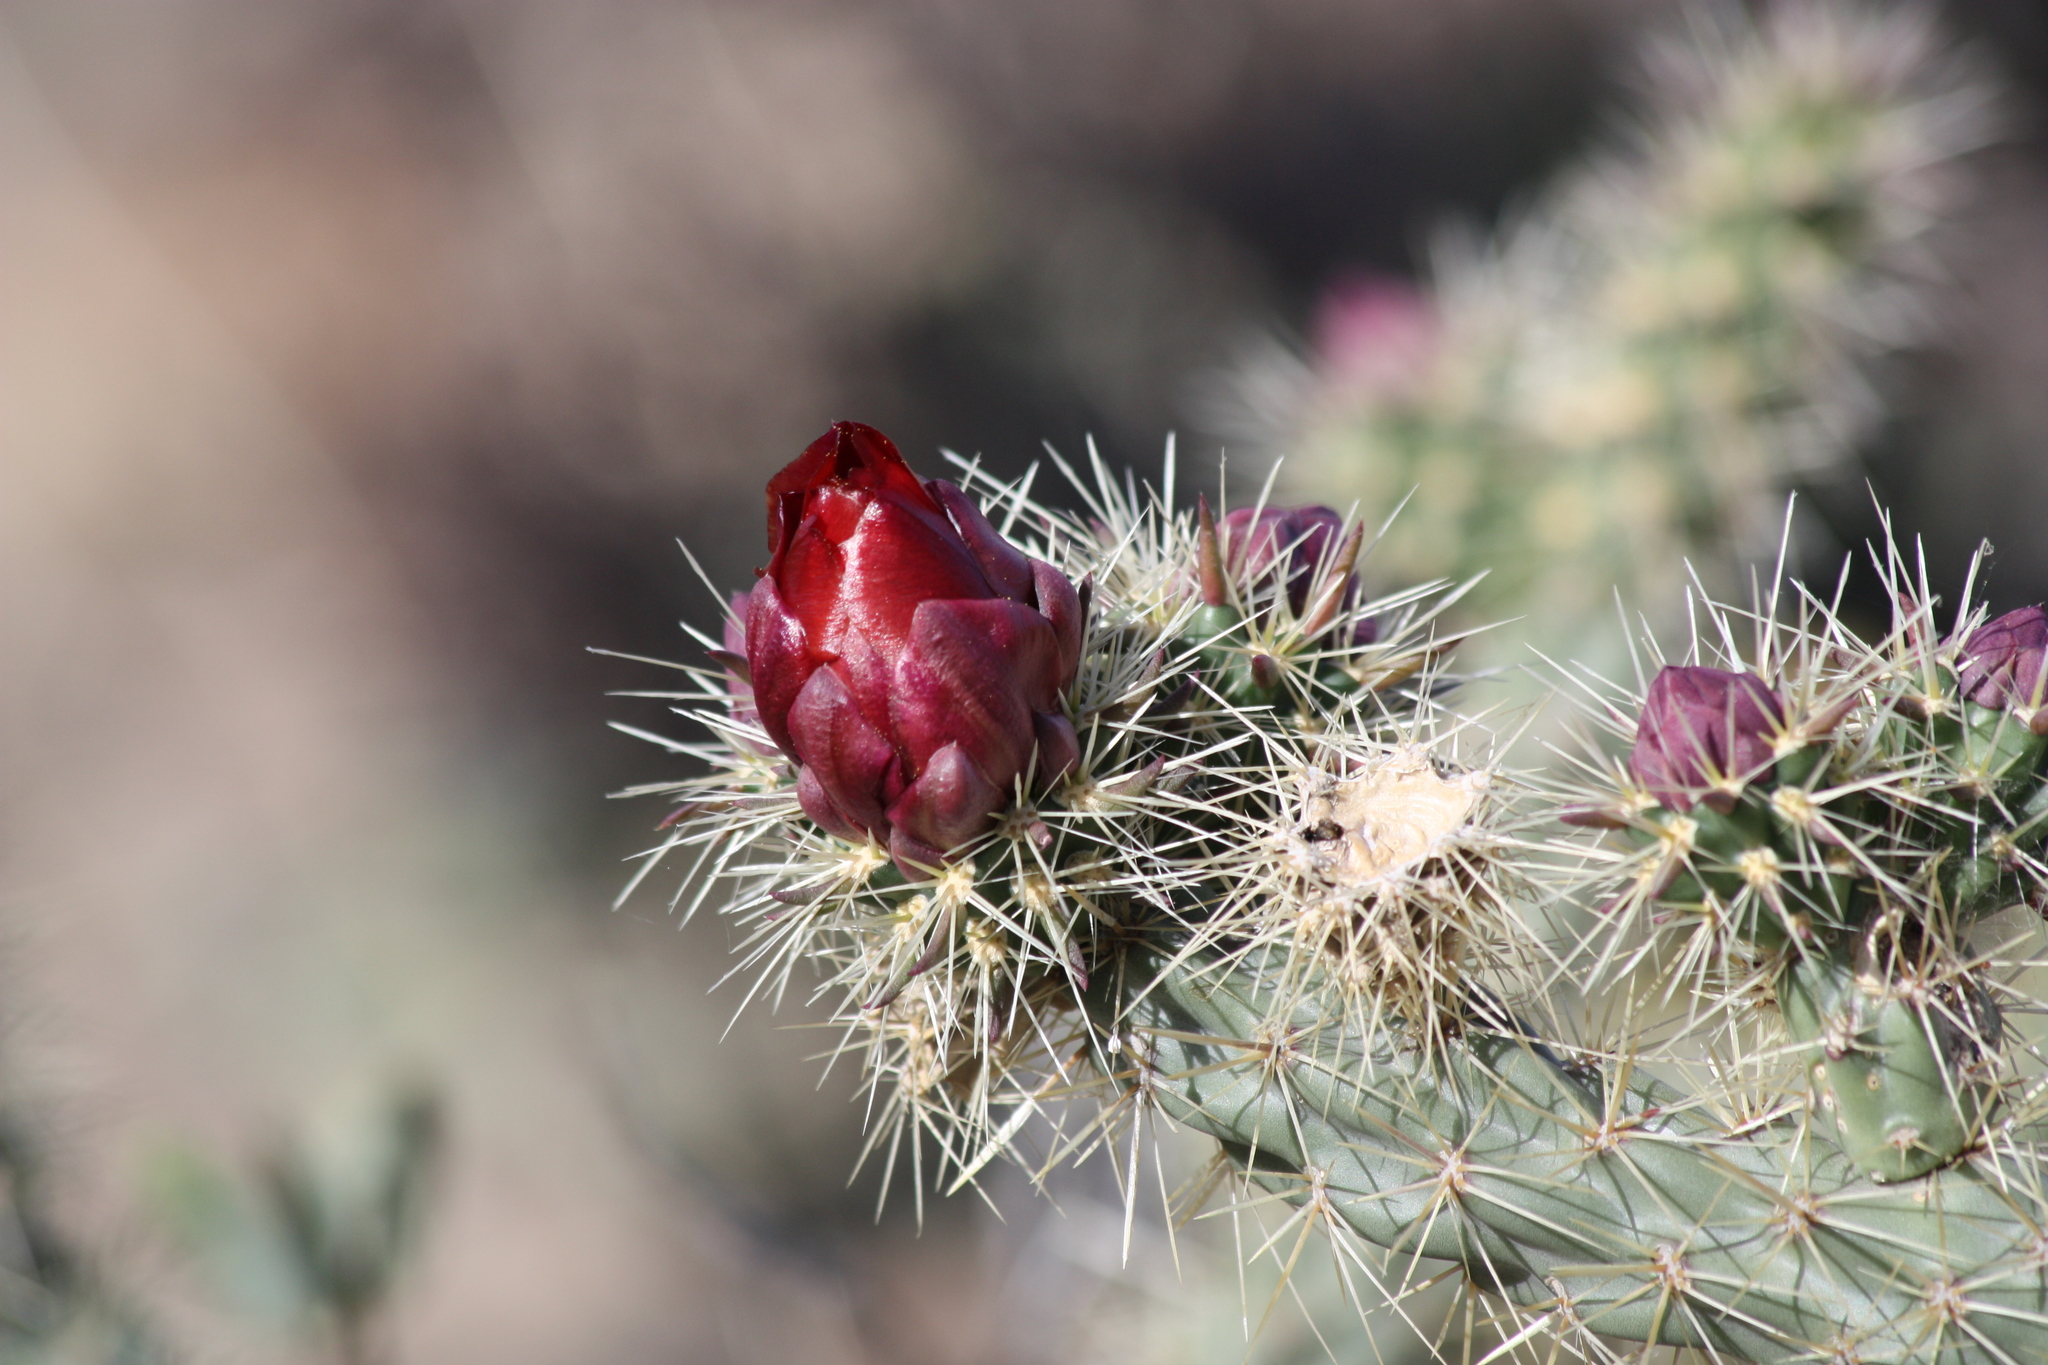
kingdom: Plantae
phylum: Tracheophyta
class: Magnoliopsida
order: Caryophyllales
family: Cactaceae
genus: Cylindropuntia
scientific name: Cylindropuntia acanthocarpa
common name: Buckhorn cholla
